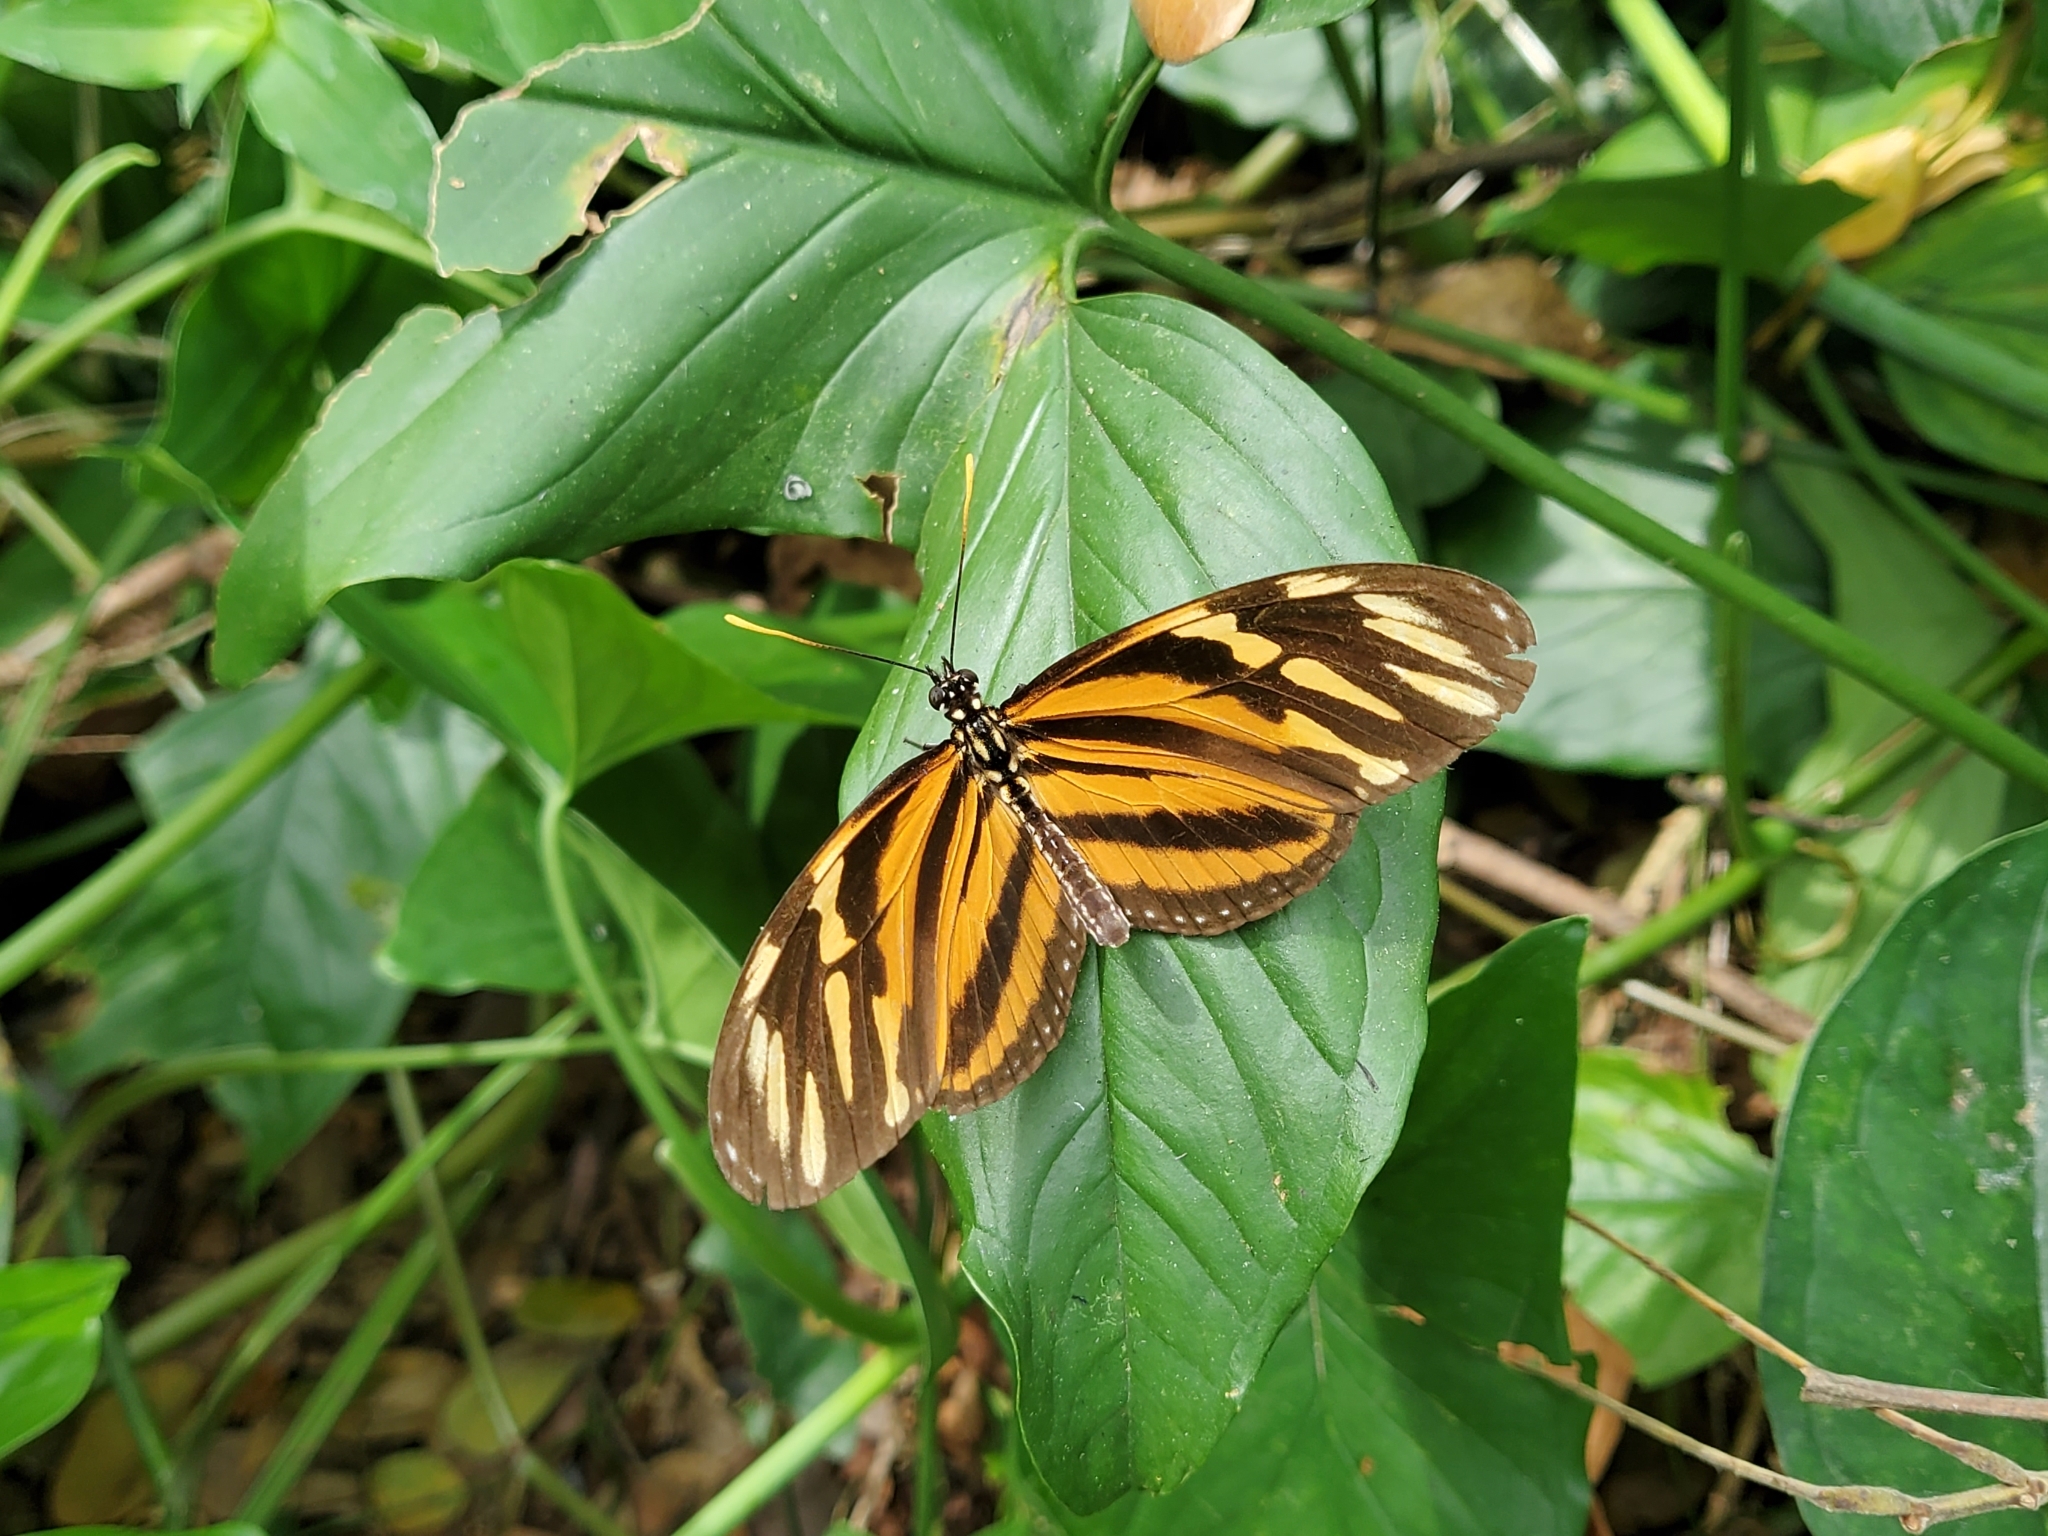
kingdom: Animalia
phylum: Arthropoda
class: Insecta
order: Lepidoptera
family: Nymphalidae
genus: Eueides
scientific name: Eueides isabella
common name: Isabella's longwing
